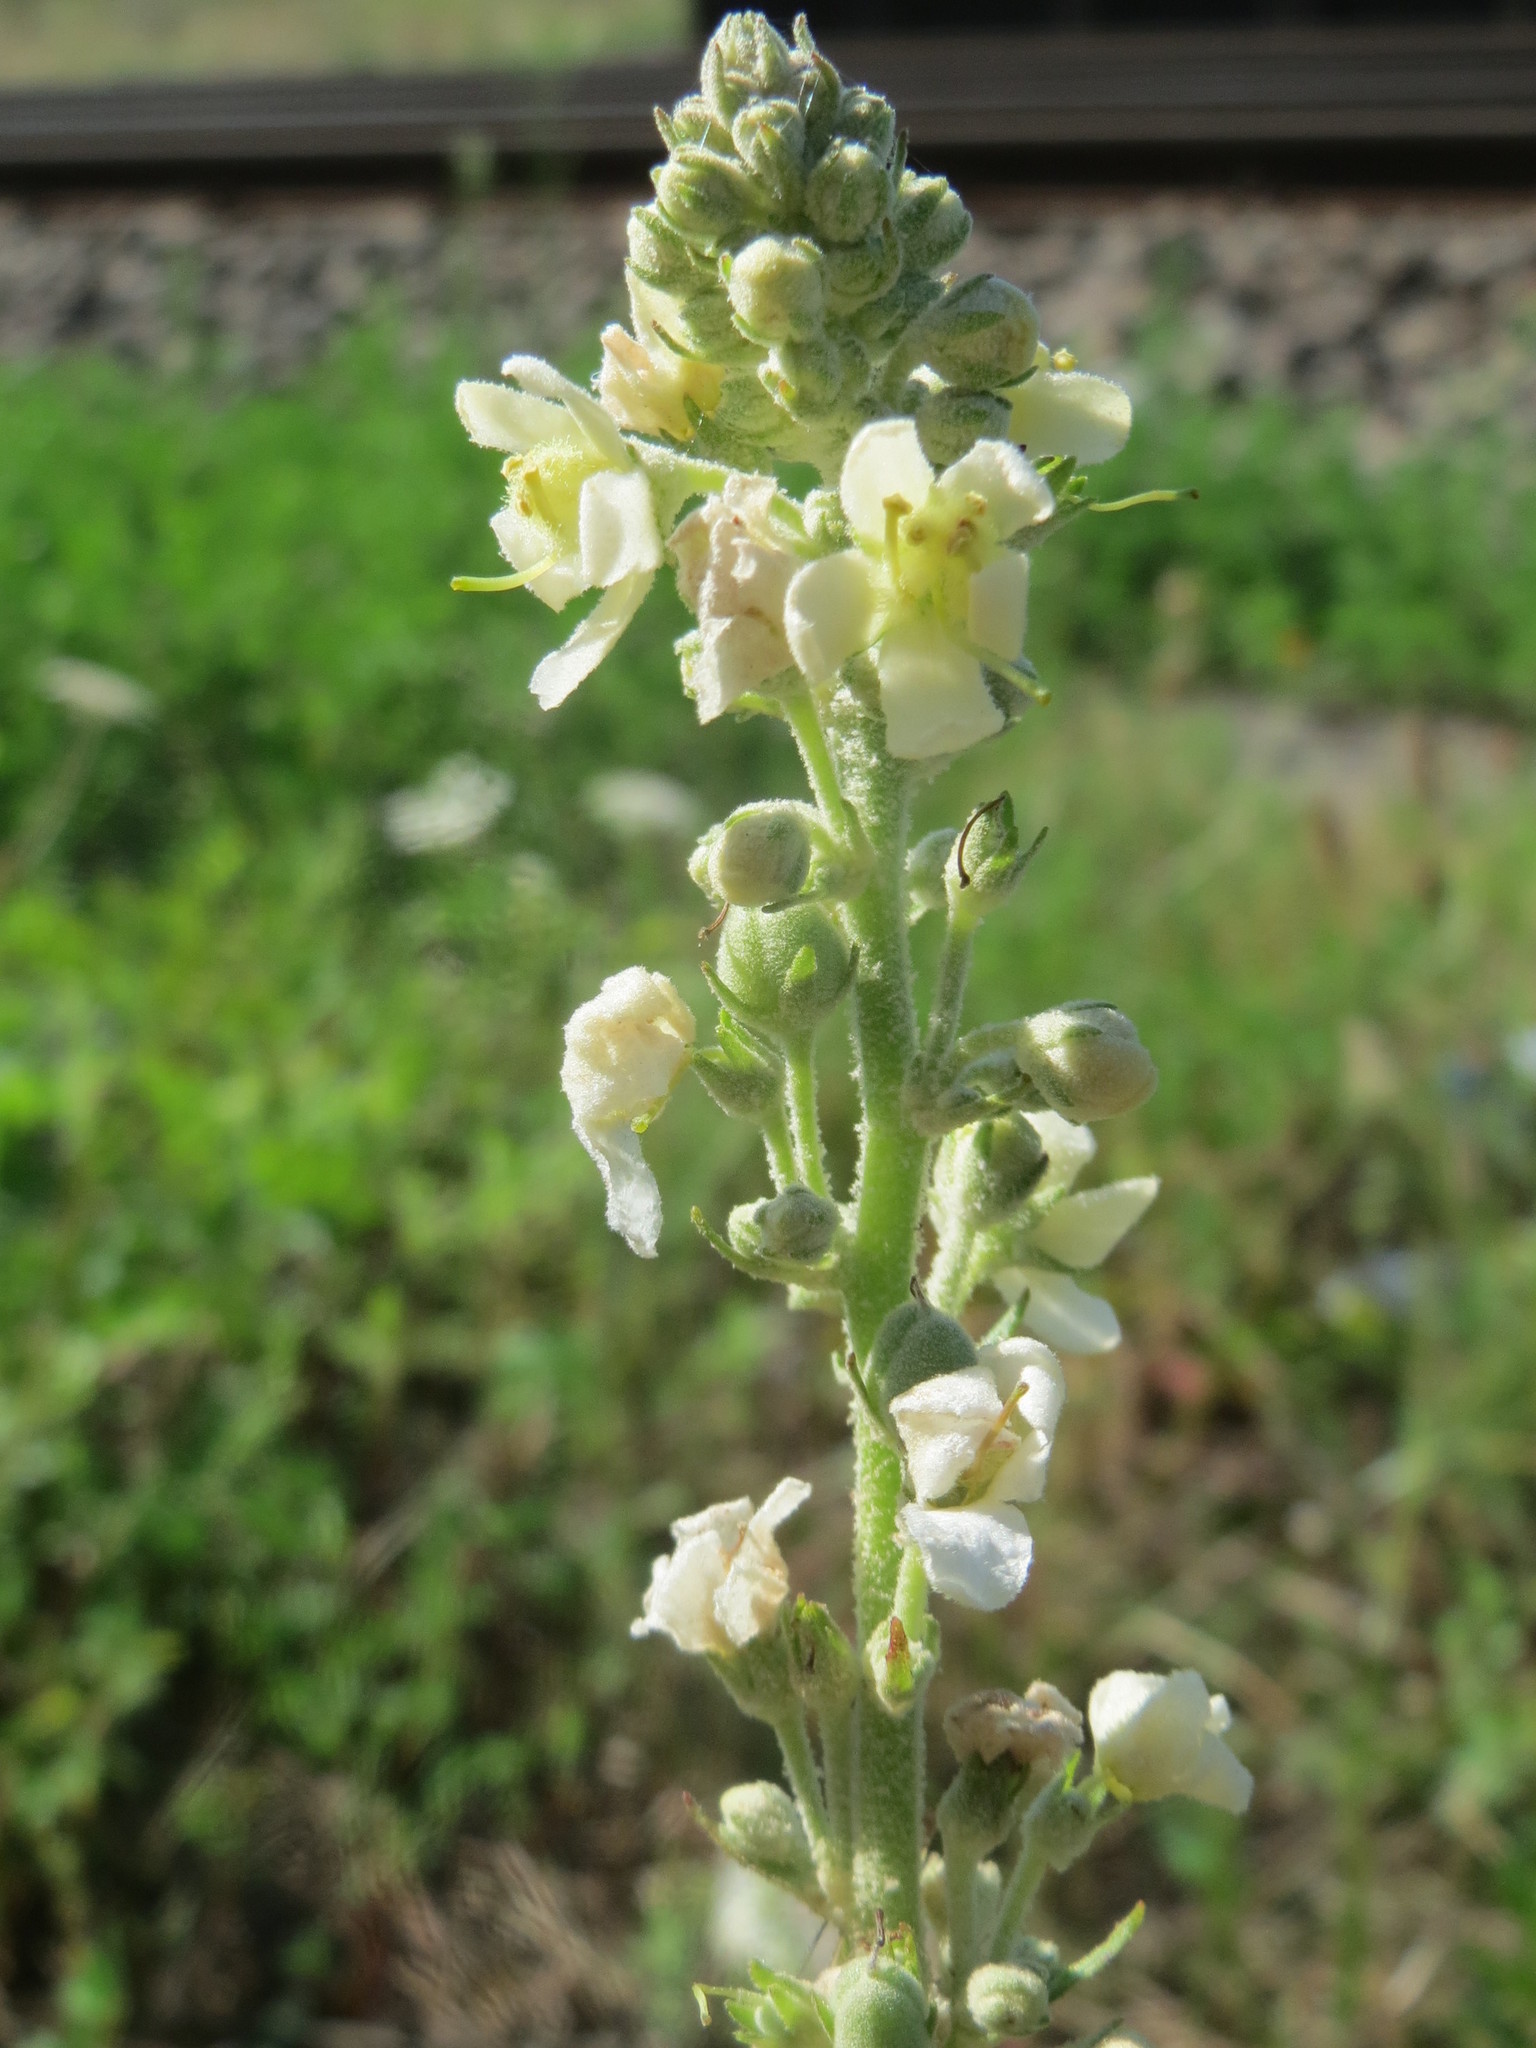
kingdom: Plantae
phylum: Tracheophyta
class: Magnoliopsida
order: Lamiales
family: Scrophulariaceae
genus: Verbascum
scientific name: Verbascum lychnitis
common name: White mullein
